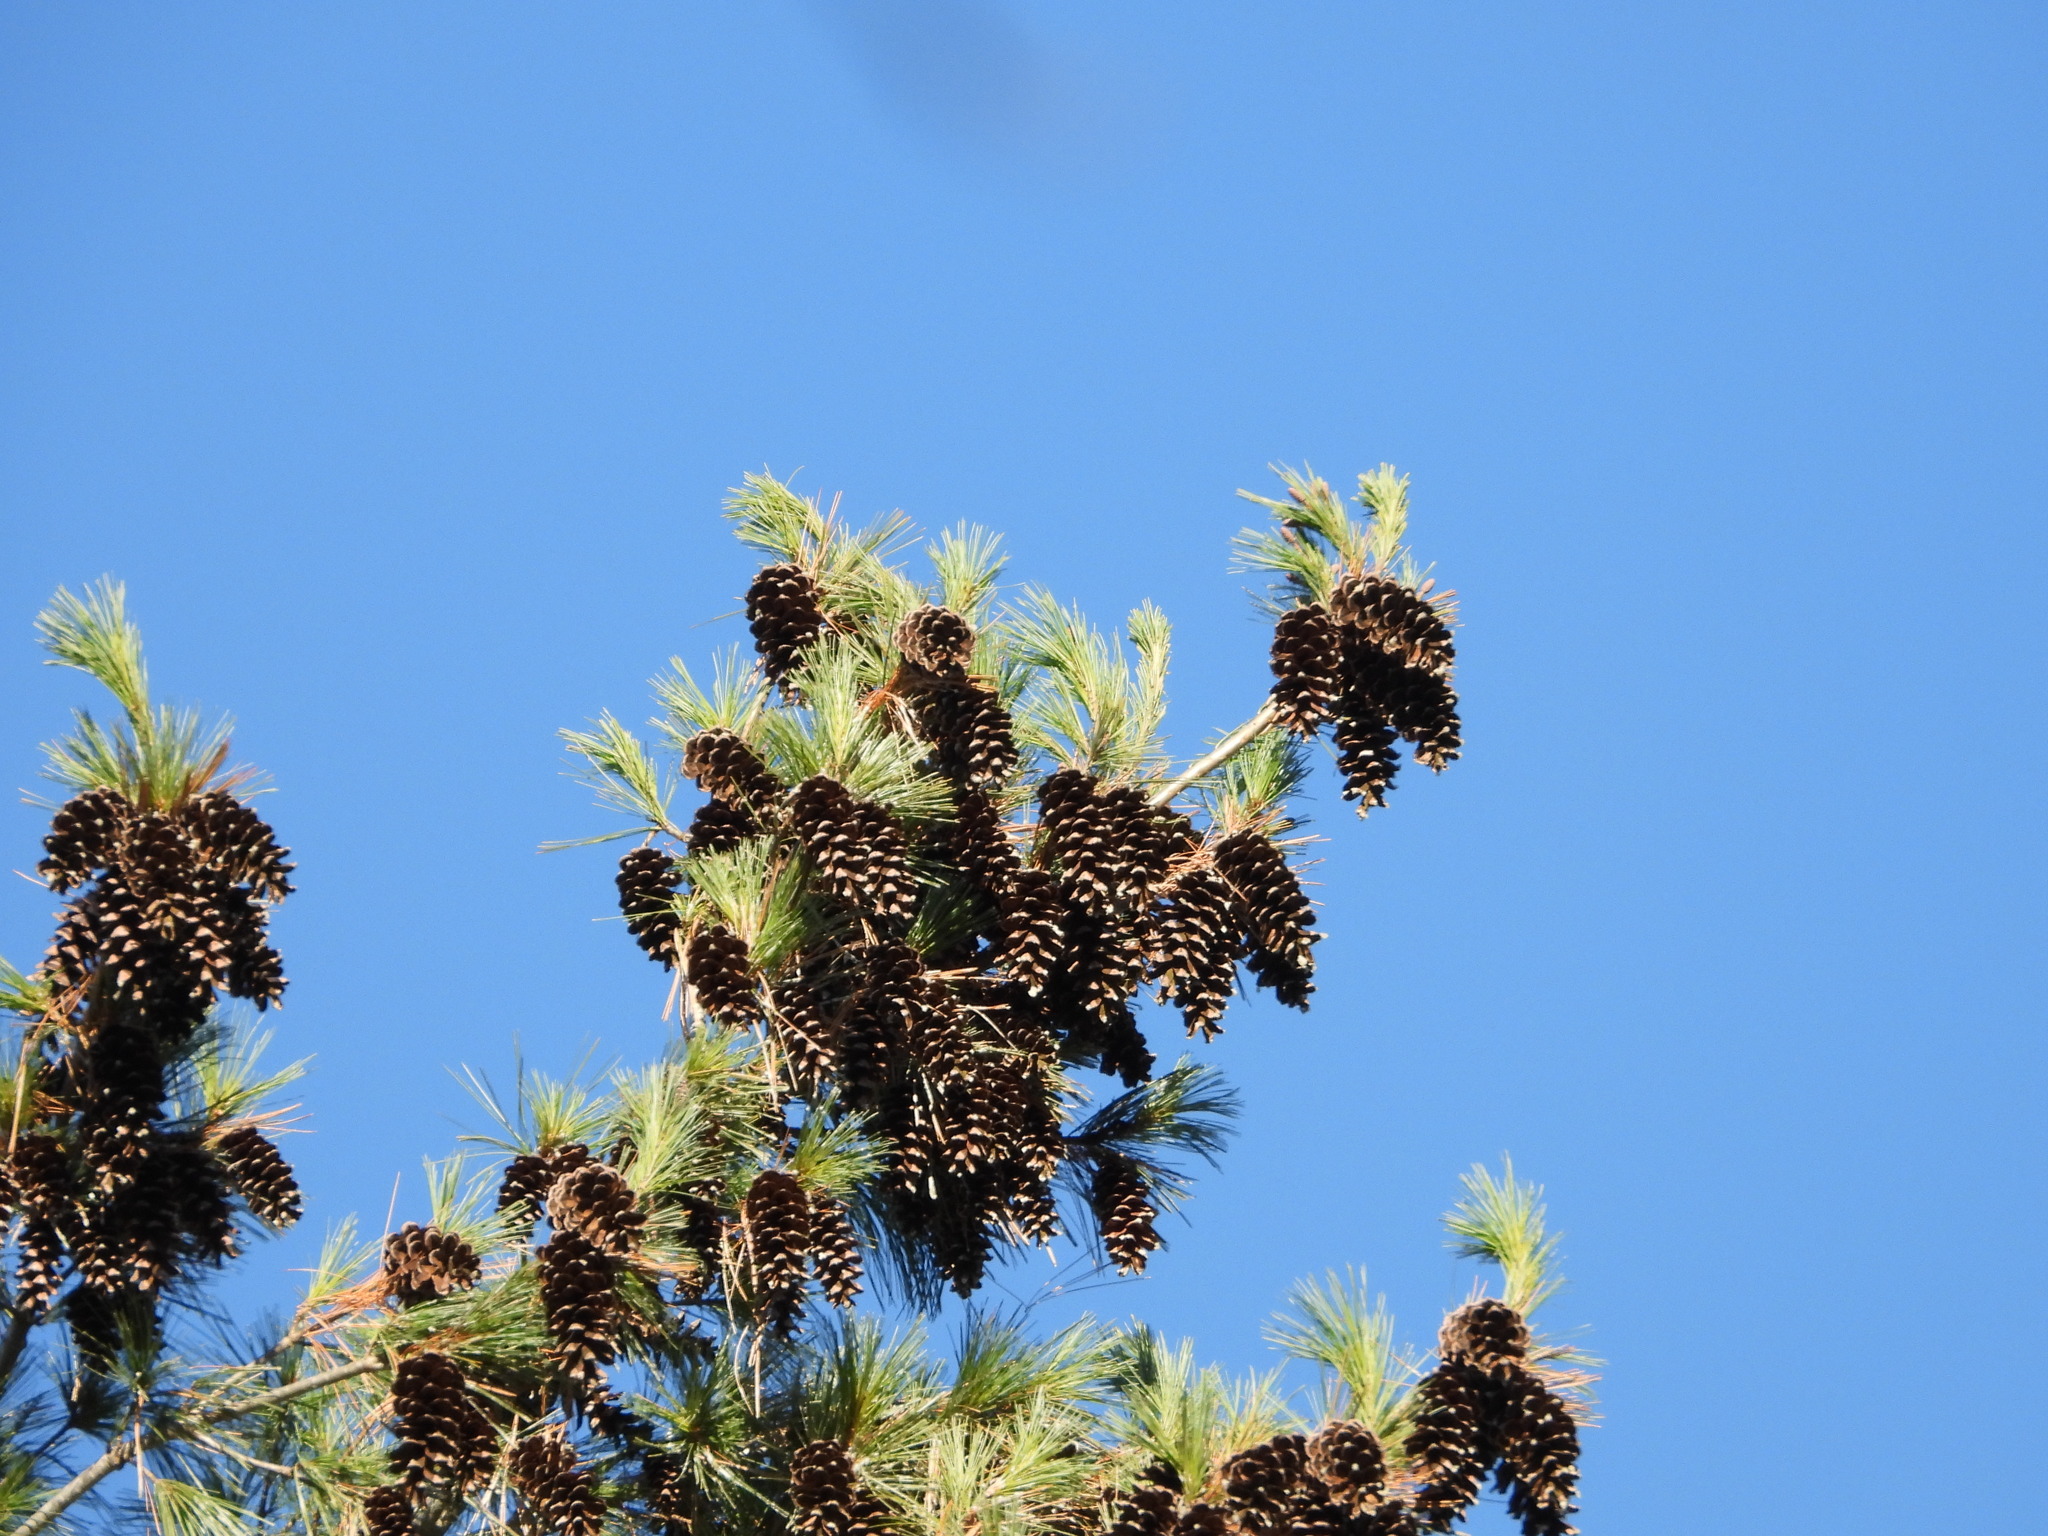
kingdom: Plantae
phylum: Tracheophyta
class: Pinopsida
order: Pinales
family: Pinaceae
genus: Pinus
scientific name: Pinus strobus
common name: Weymouth pine
